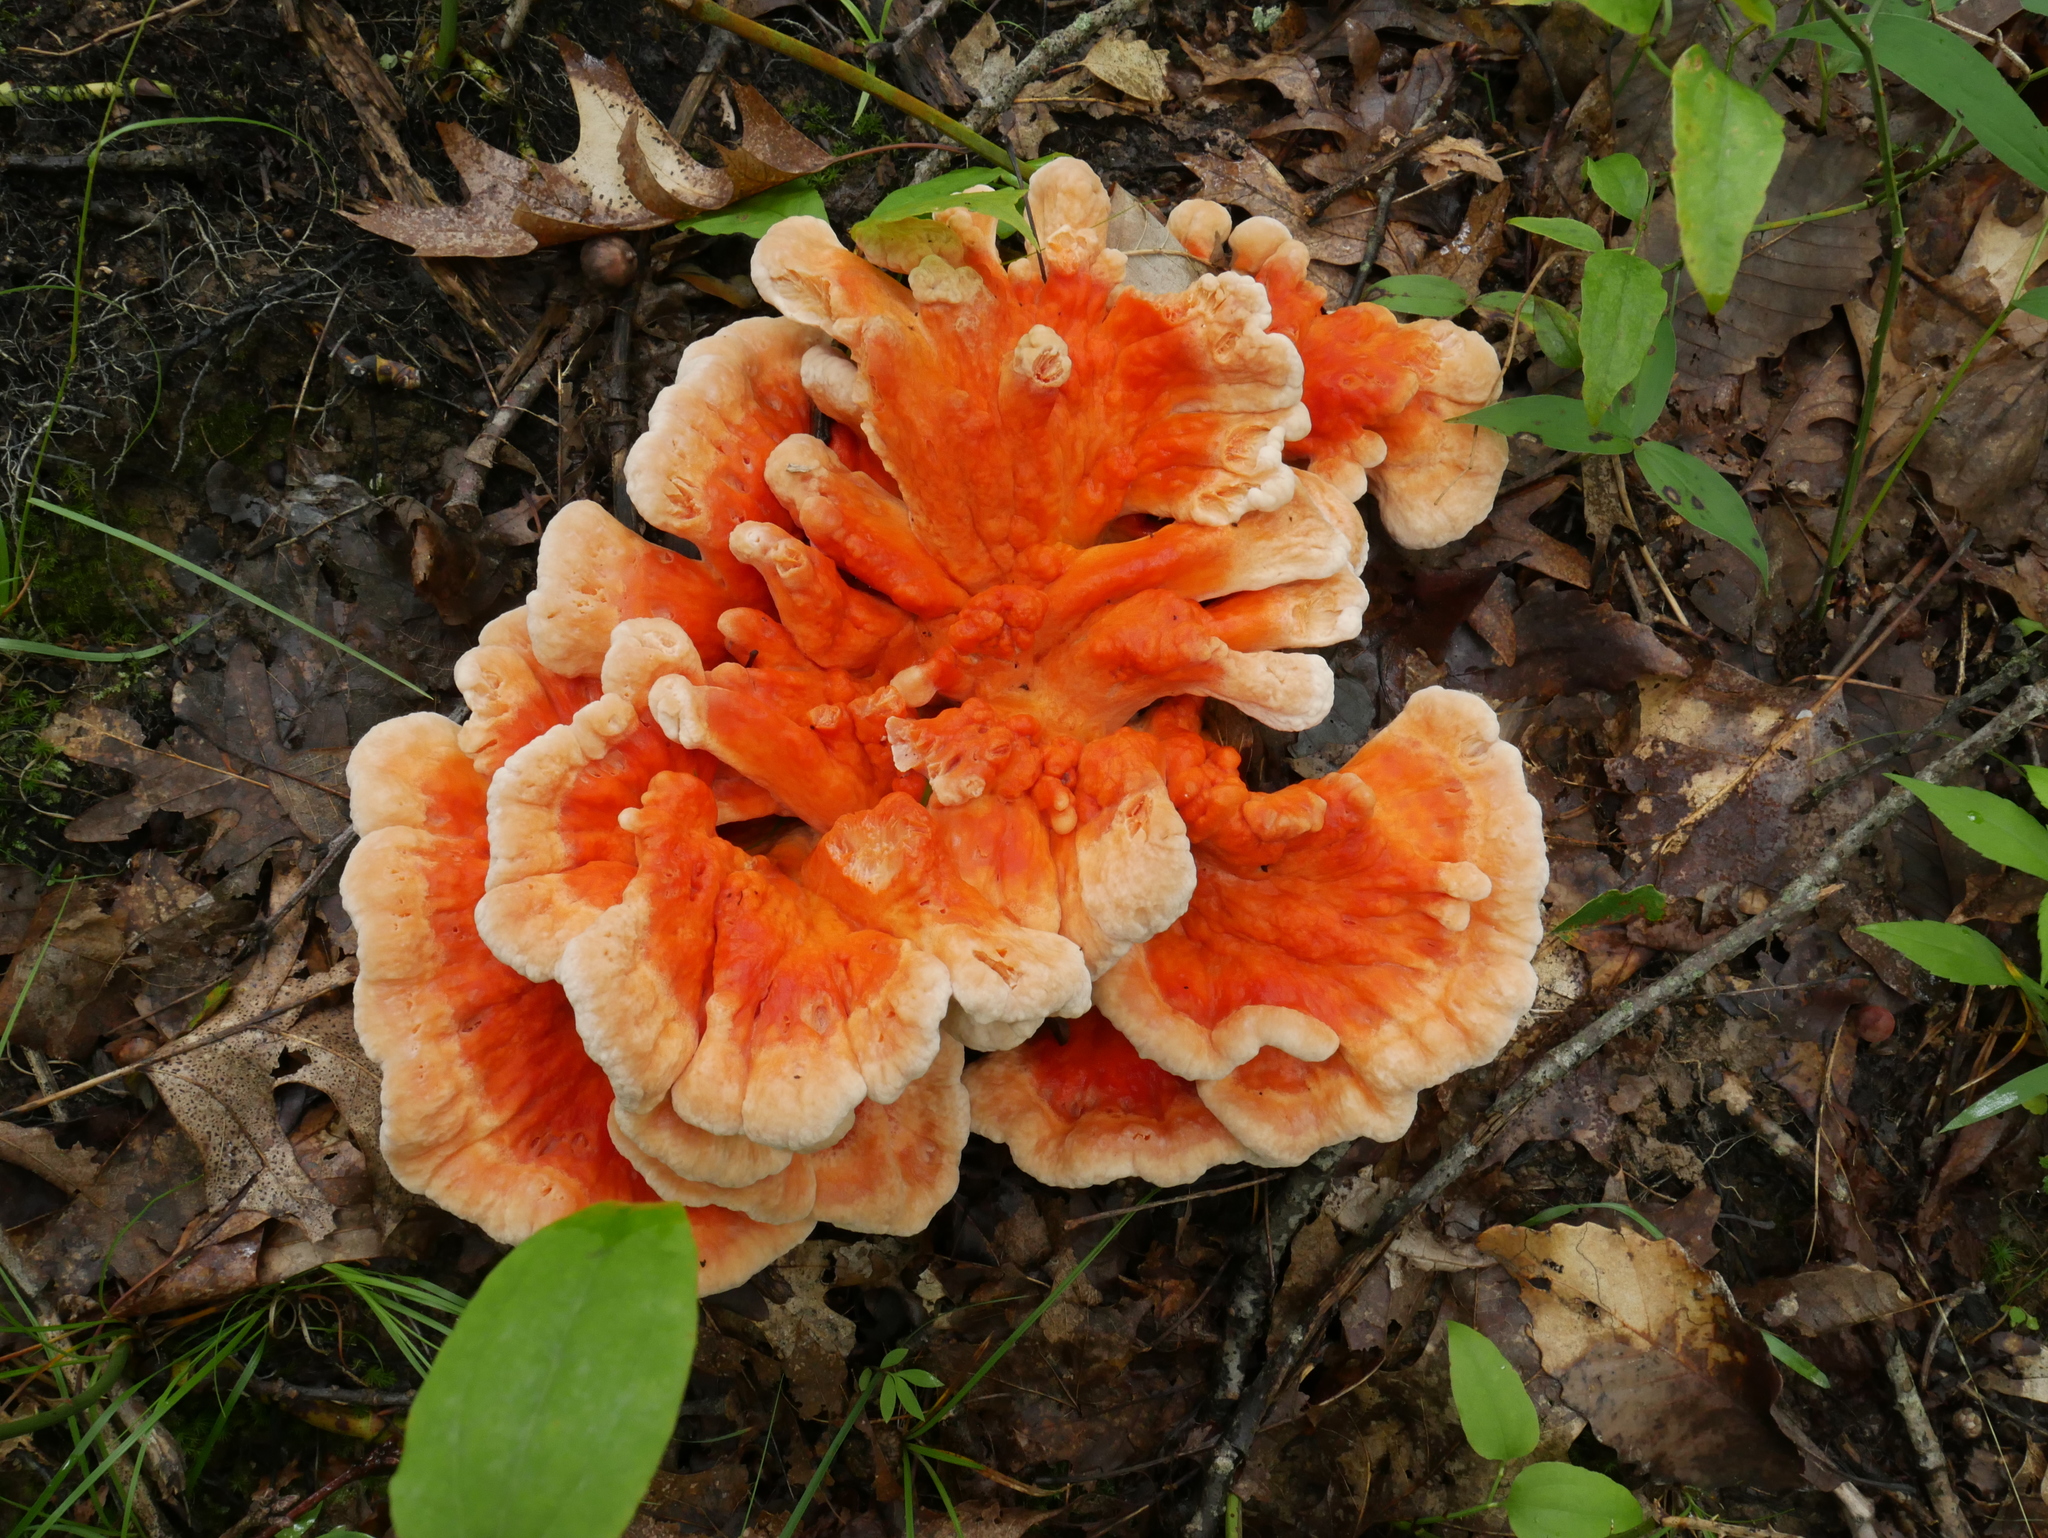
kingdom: Fungi
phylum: Basidiomycota
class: Agaricomycetes
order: Polyporales
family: Laetiporaceae
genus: Laetiporus
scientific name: Laetiporus sulphureus
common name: Chicken of the woods
